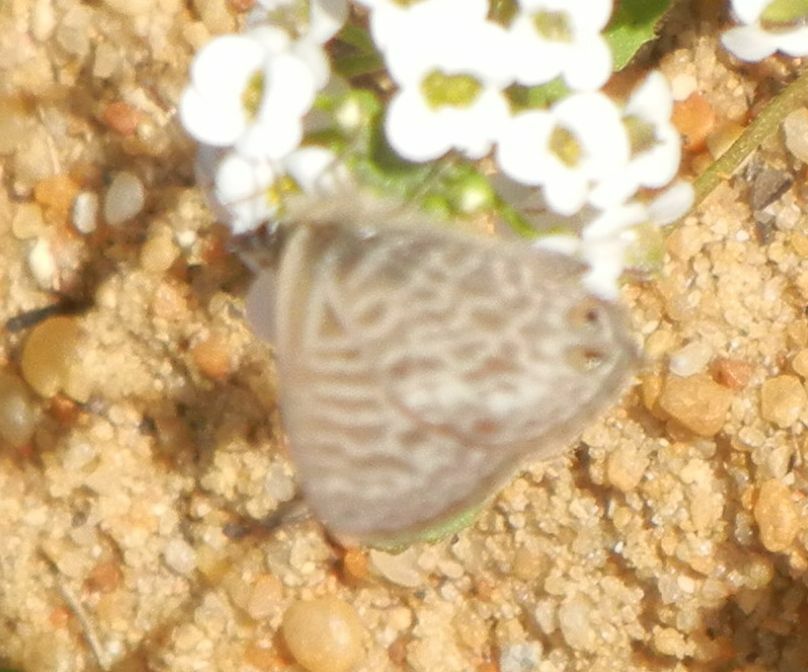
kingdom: Animalia
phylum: Arthropoda
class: Insecta
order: Lepidoptera
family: Lycaenidae
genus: Leptotes
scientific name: Leptotes pirithous
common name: Lang's short-tailed blue
